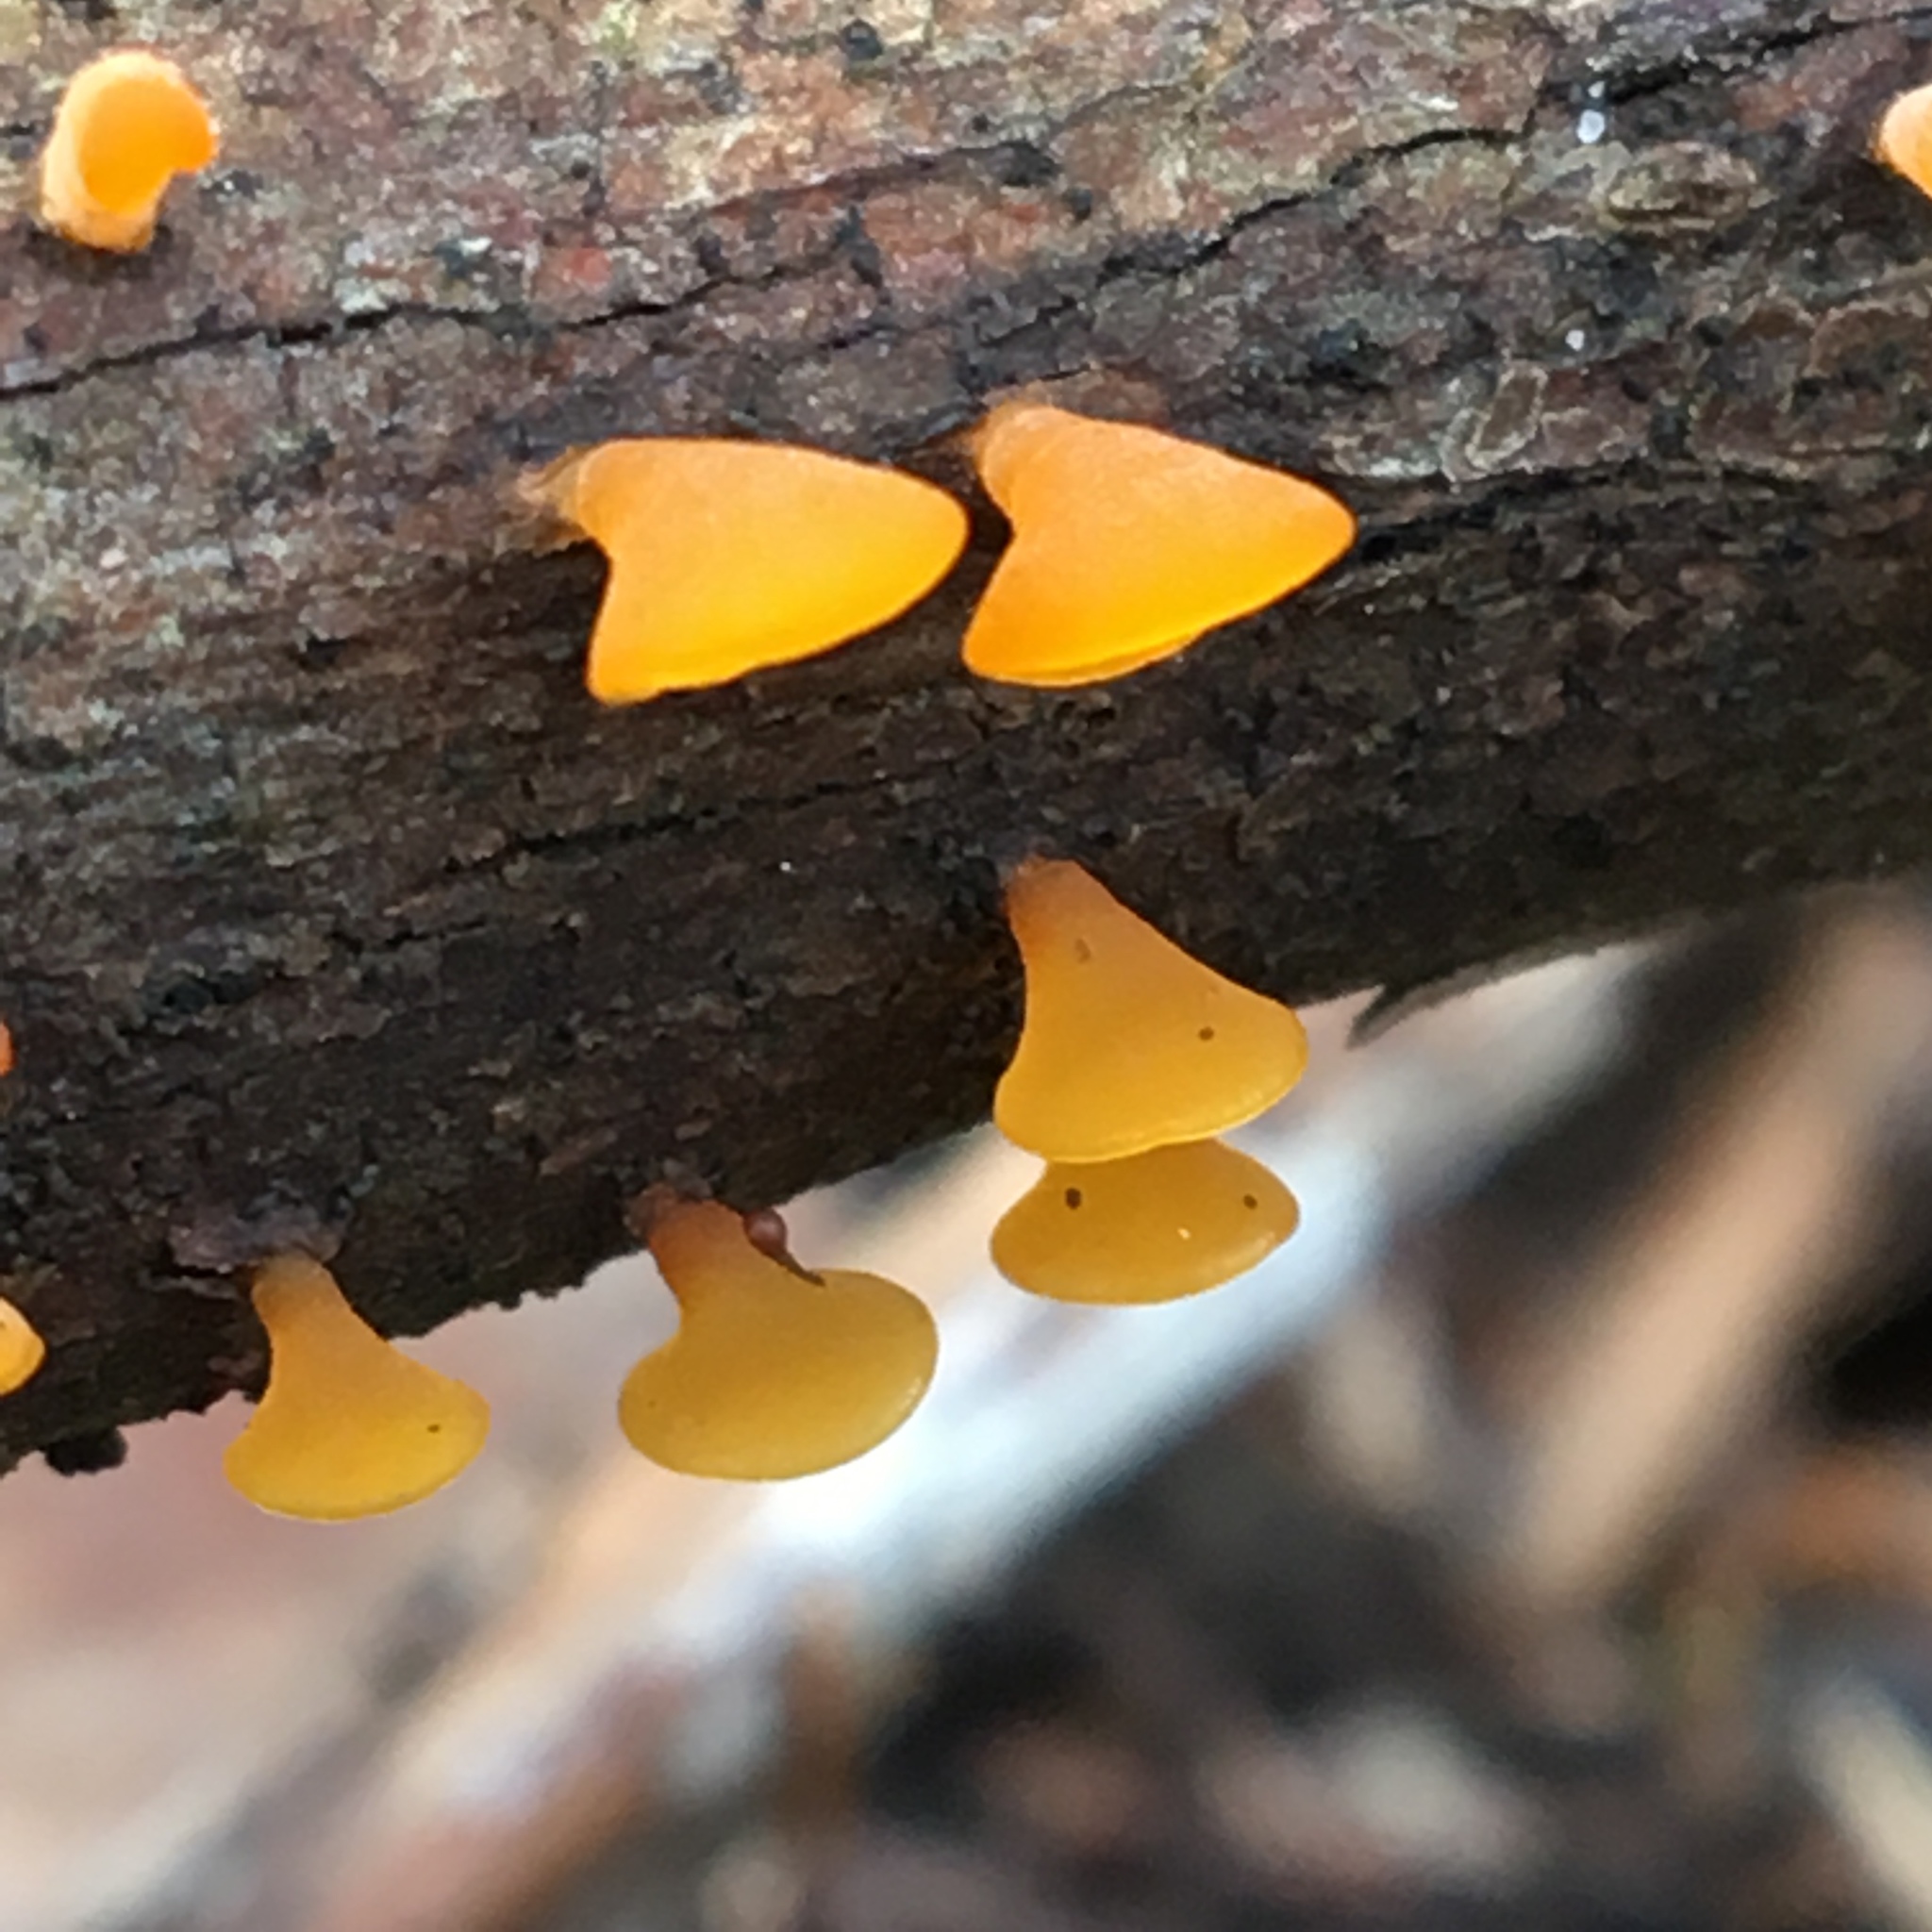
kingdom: Fungi
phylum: Basidiomycota
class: Dacrymycetes
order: Dacrymycetales
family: Dacrymycetaceae
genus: Heterotextus
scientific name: Heterotextus peziziformis
